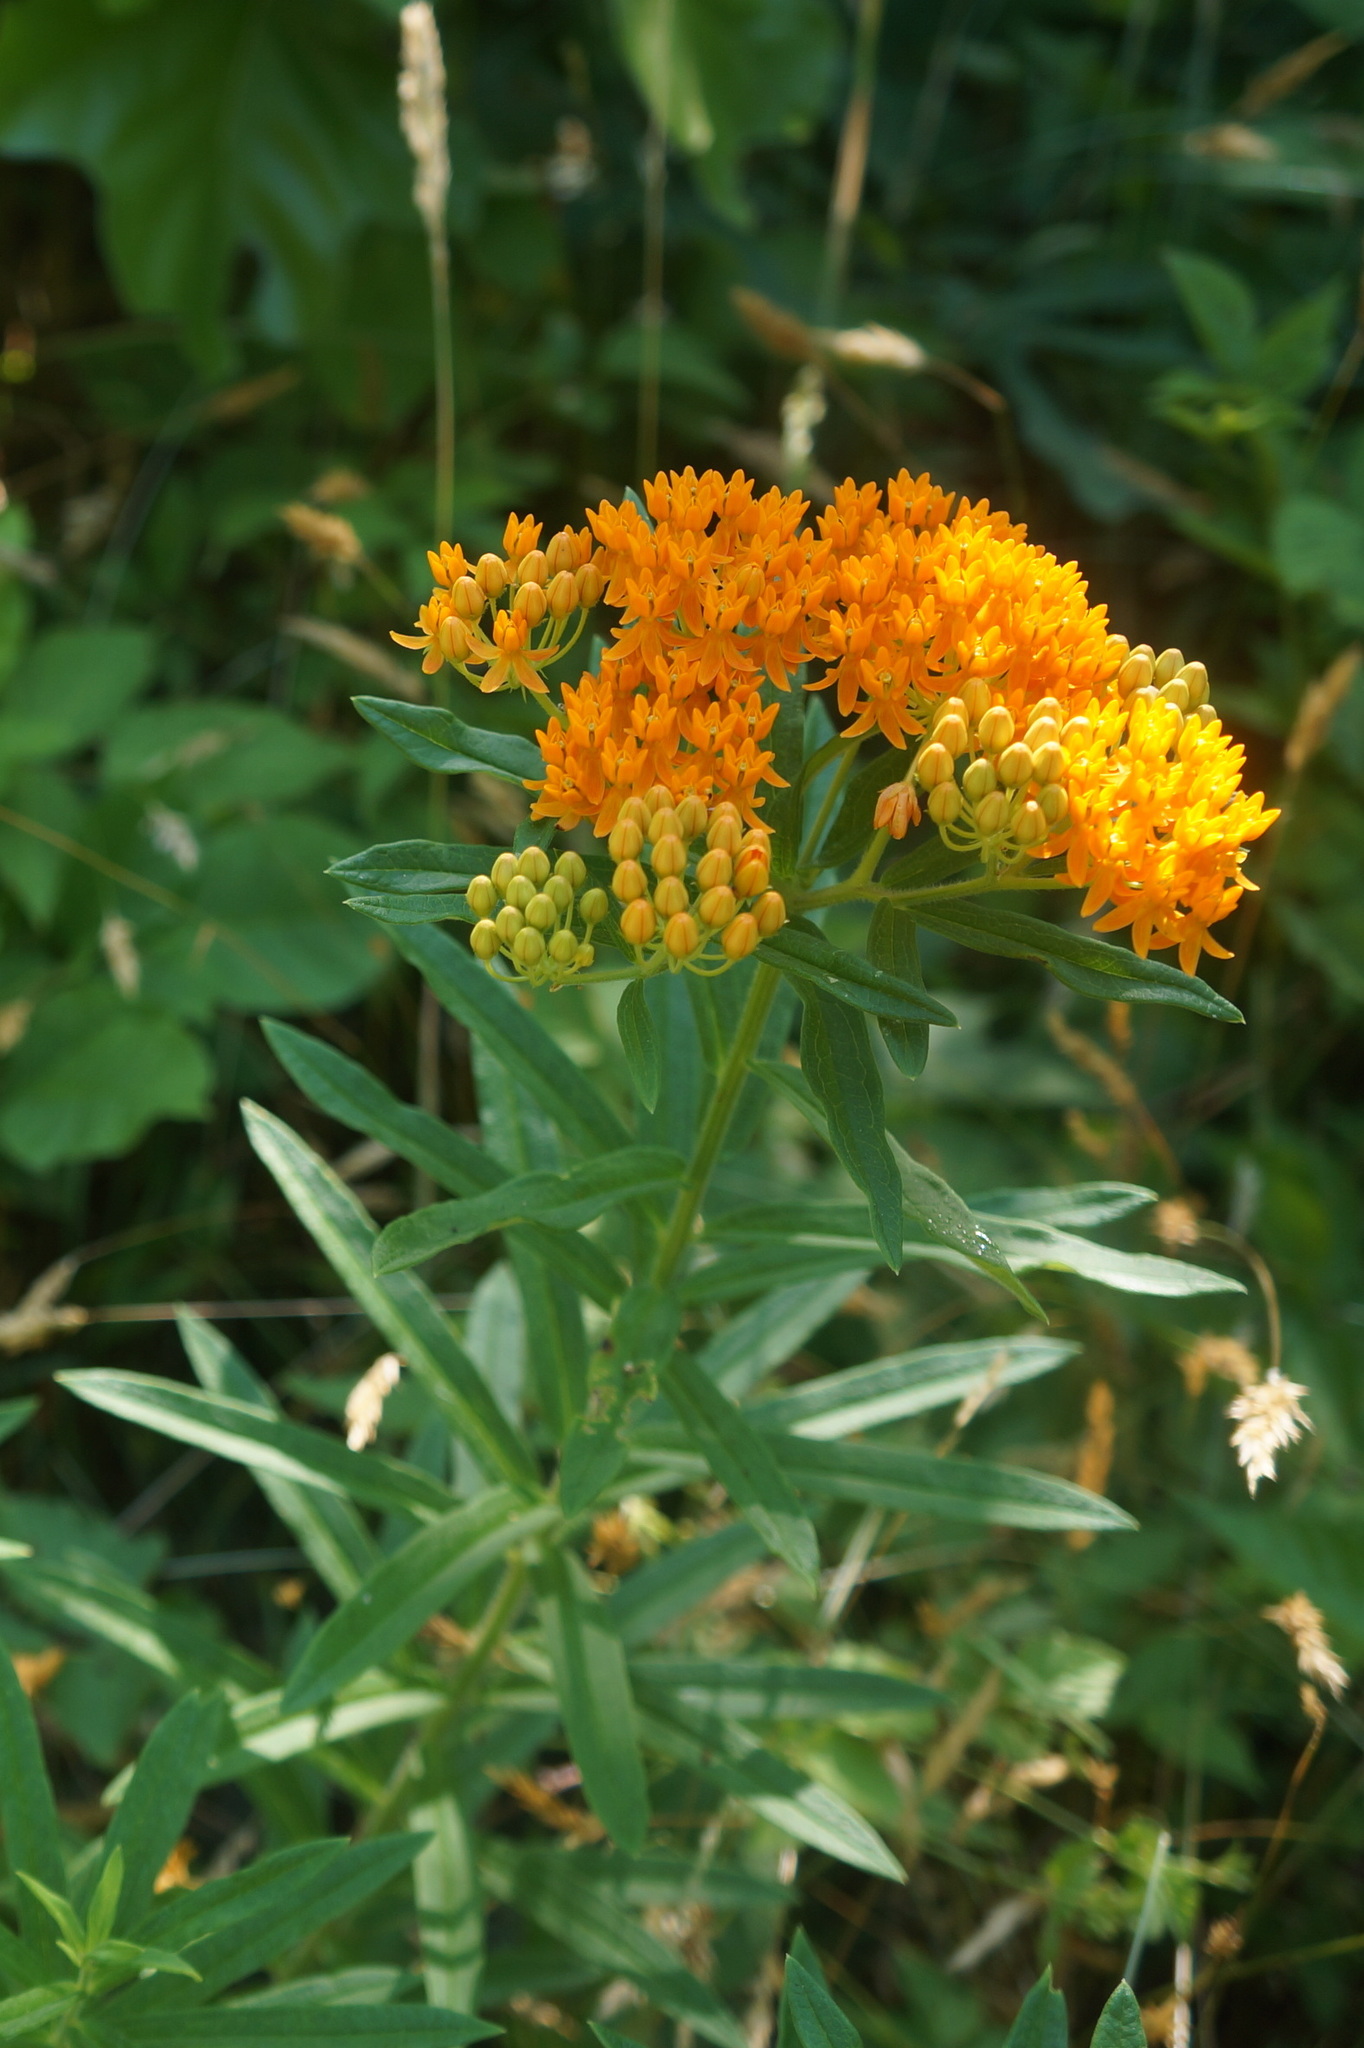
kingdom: Plantae
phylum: Tracheophyta
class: Magnoliopsida
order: Gentianales
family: Apocynaceae
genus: Asclepias
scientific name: Asclepias tuberosa
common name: Butterfly milkweed
